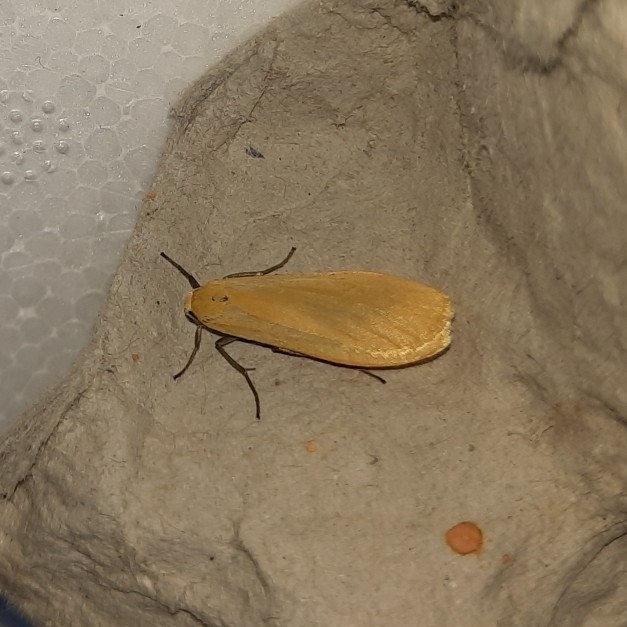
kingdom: Animalia
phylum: Arthropoda
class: Insecta
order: Lepidoptera
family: Erebidae
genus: Wittia
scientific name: Wittia sororcula
